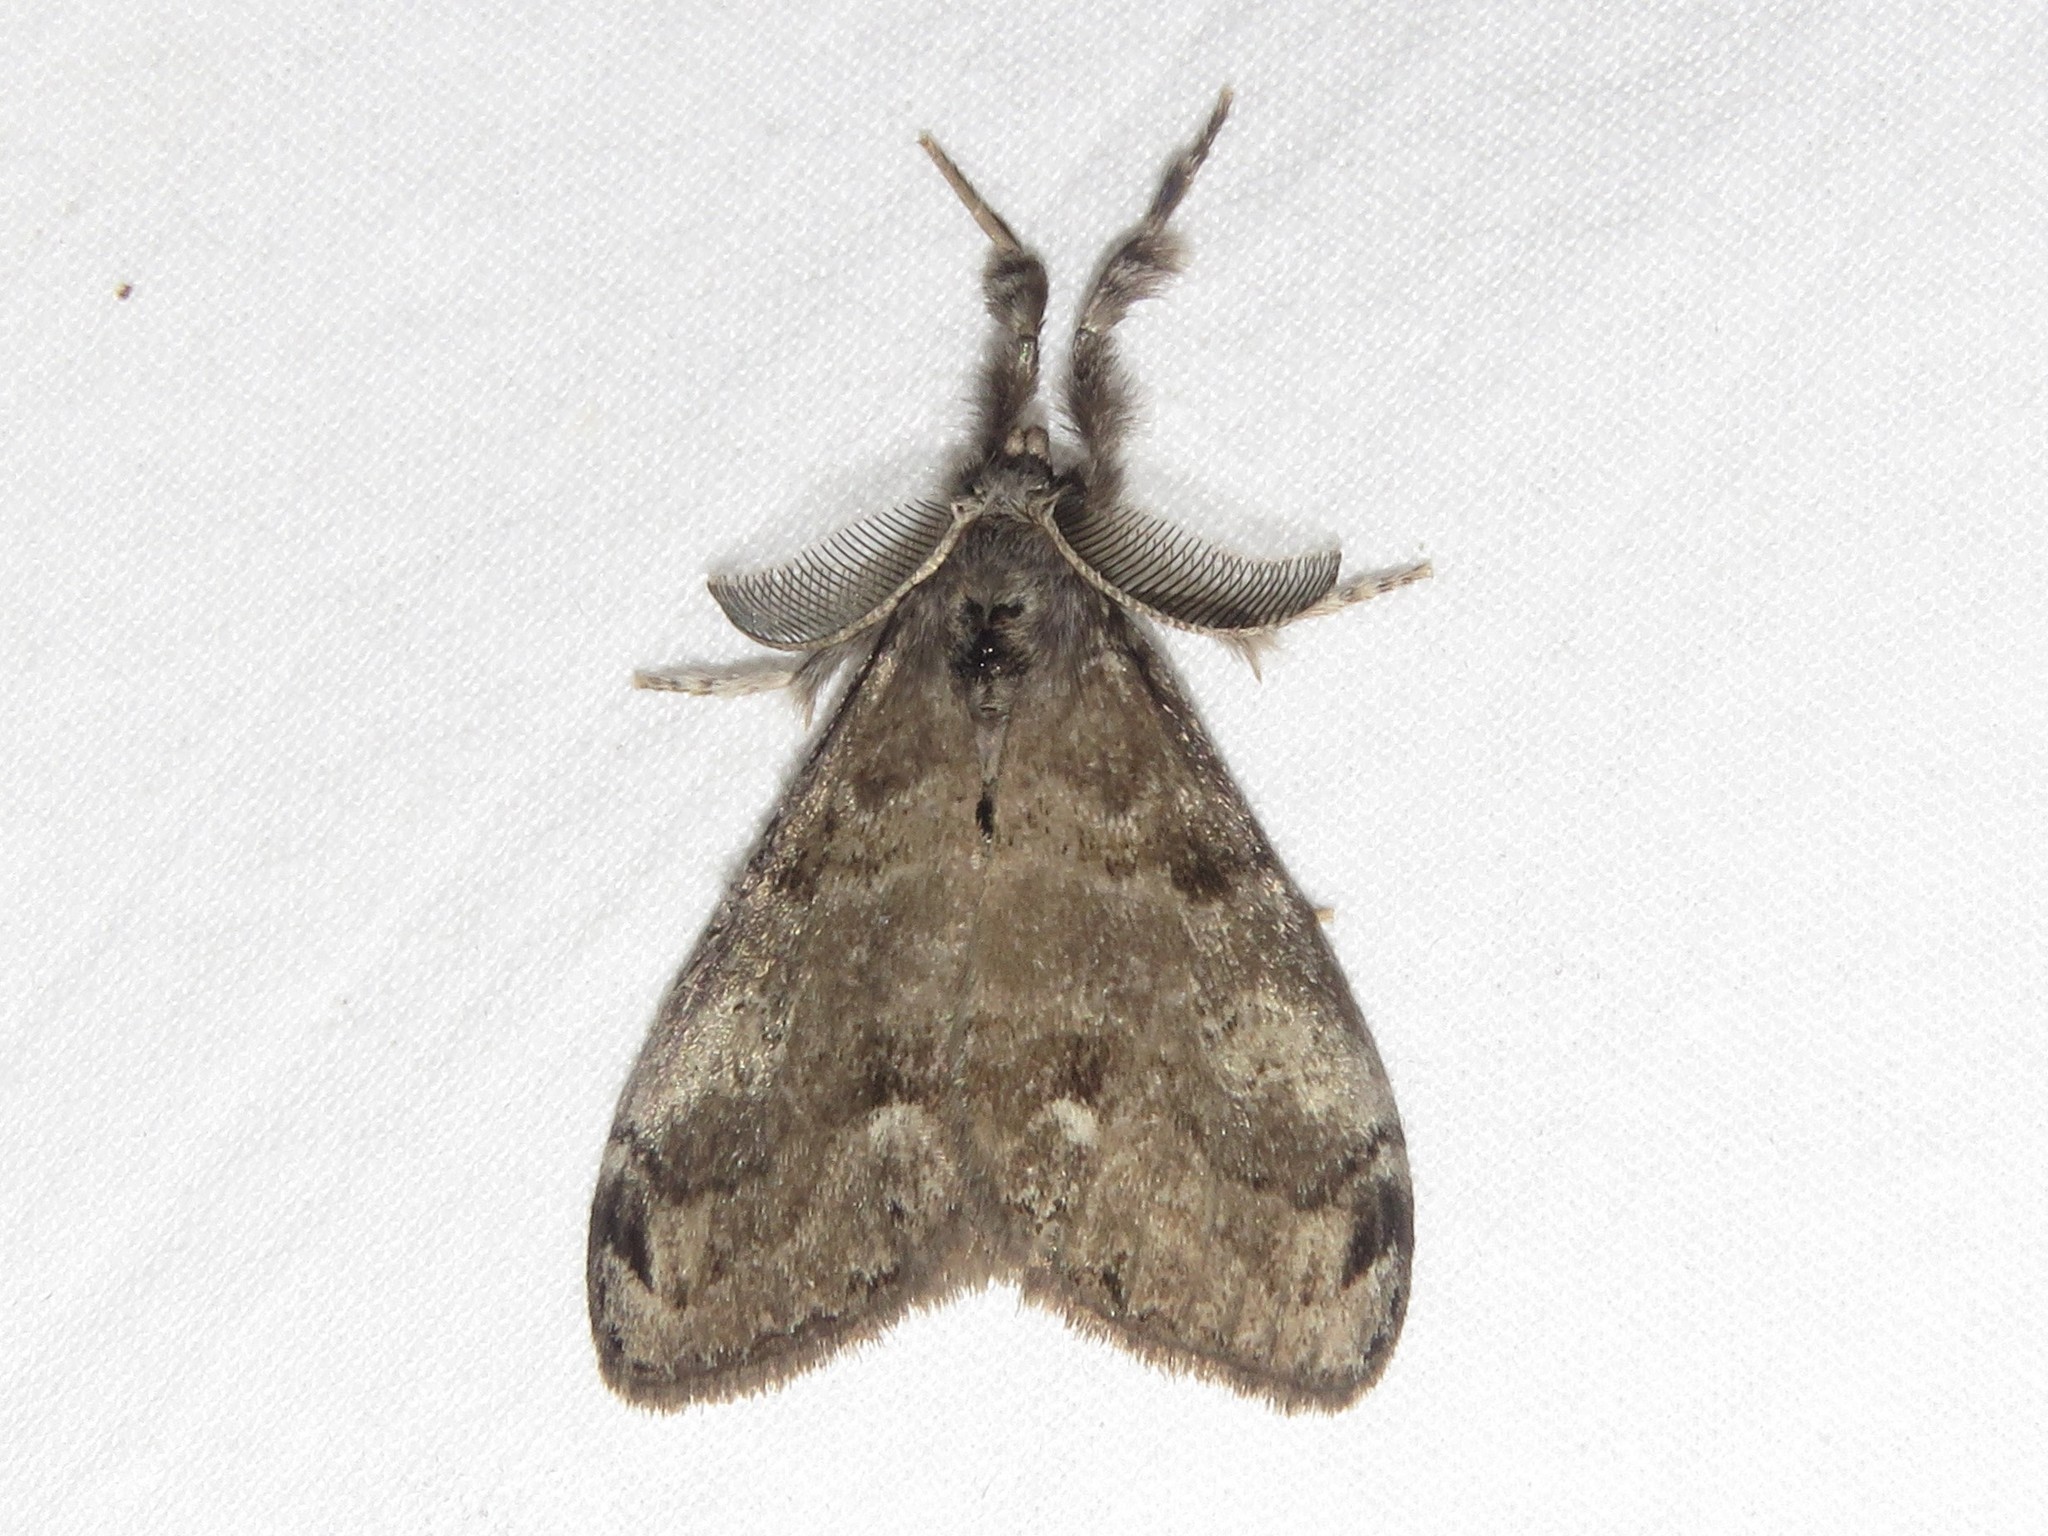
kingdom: Animalia
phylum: Arthropoda
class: Insecta
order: Lepidoptera
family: Erebidae
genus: Orgyia
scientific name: Orgyia leucostigma
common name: White-marked tussock moth
